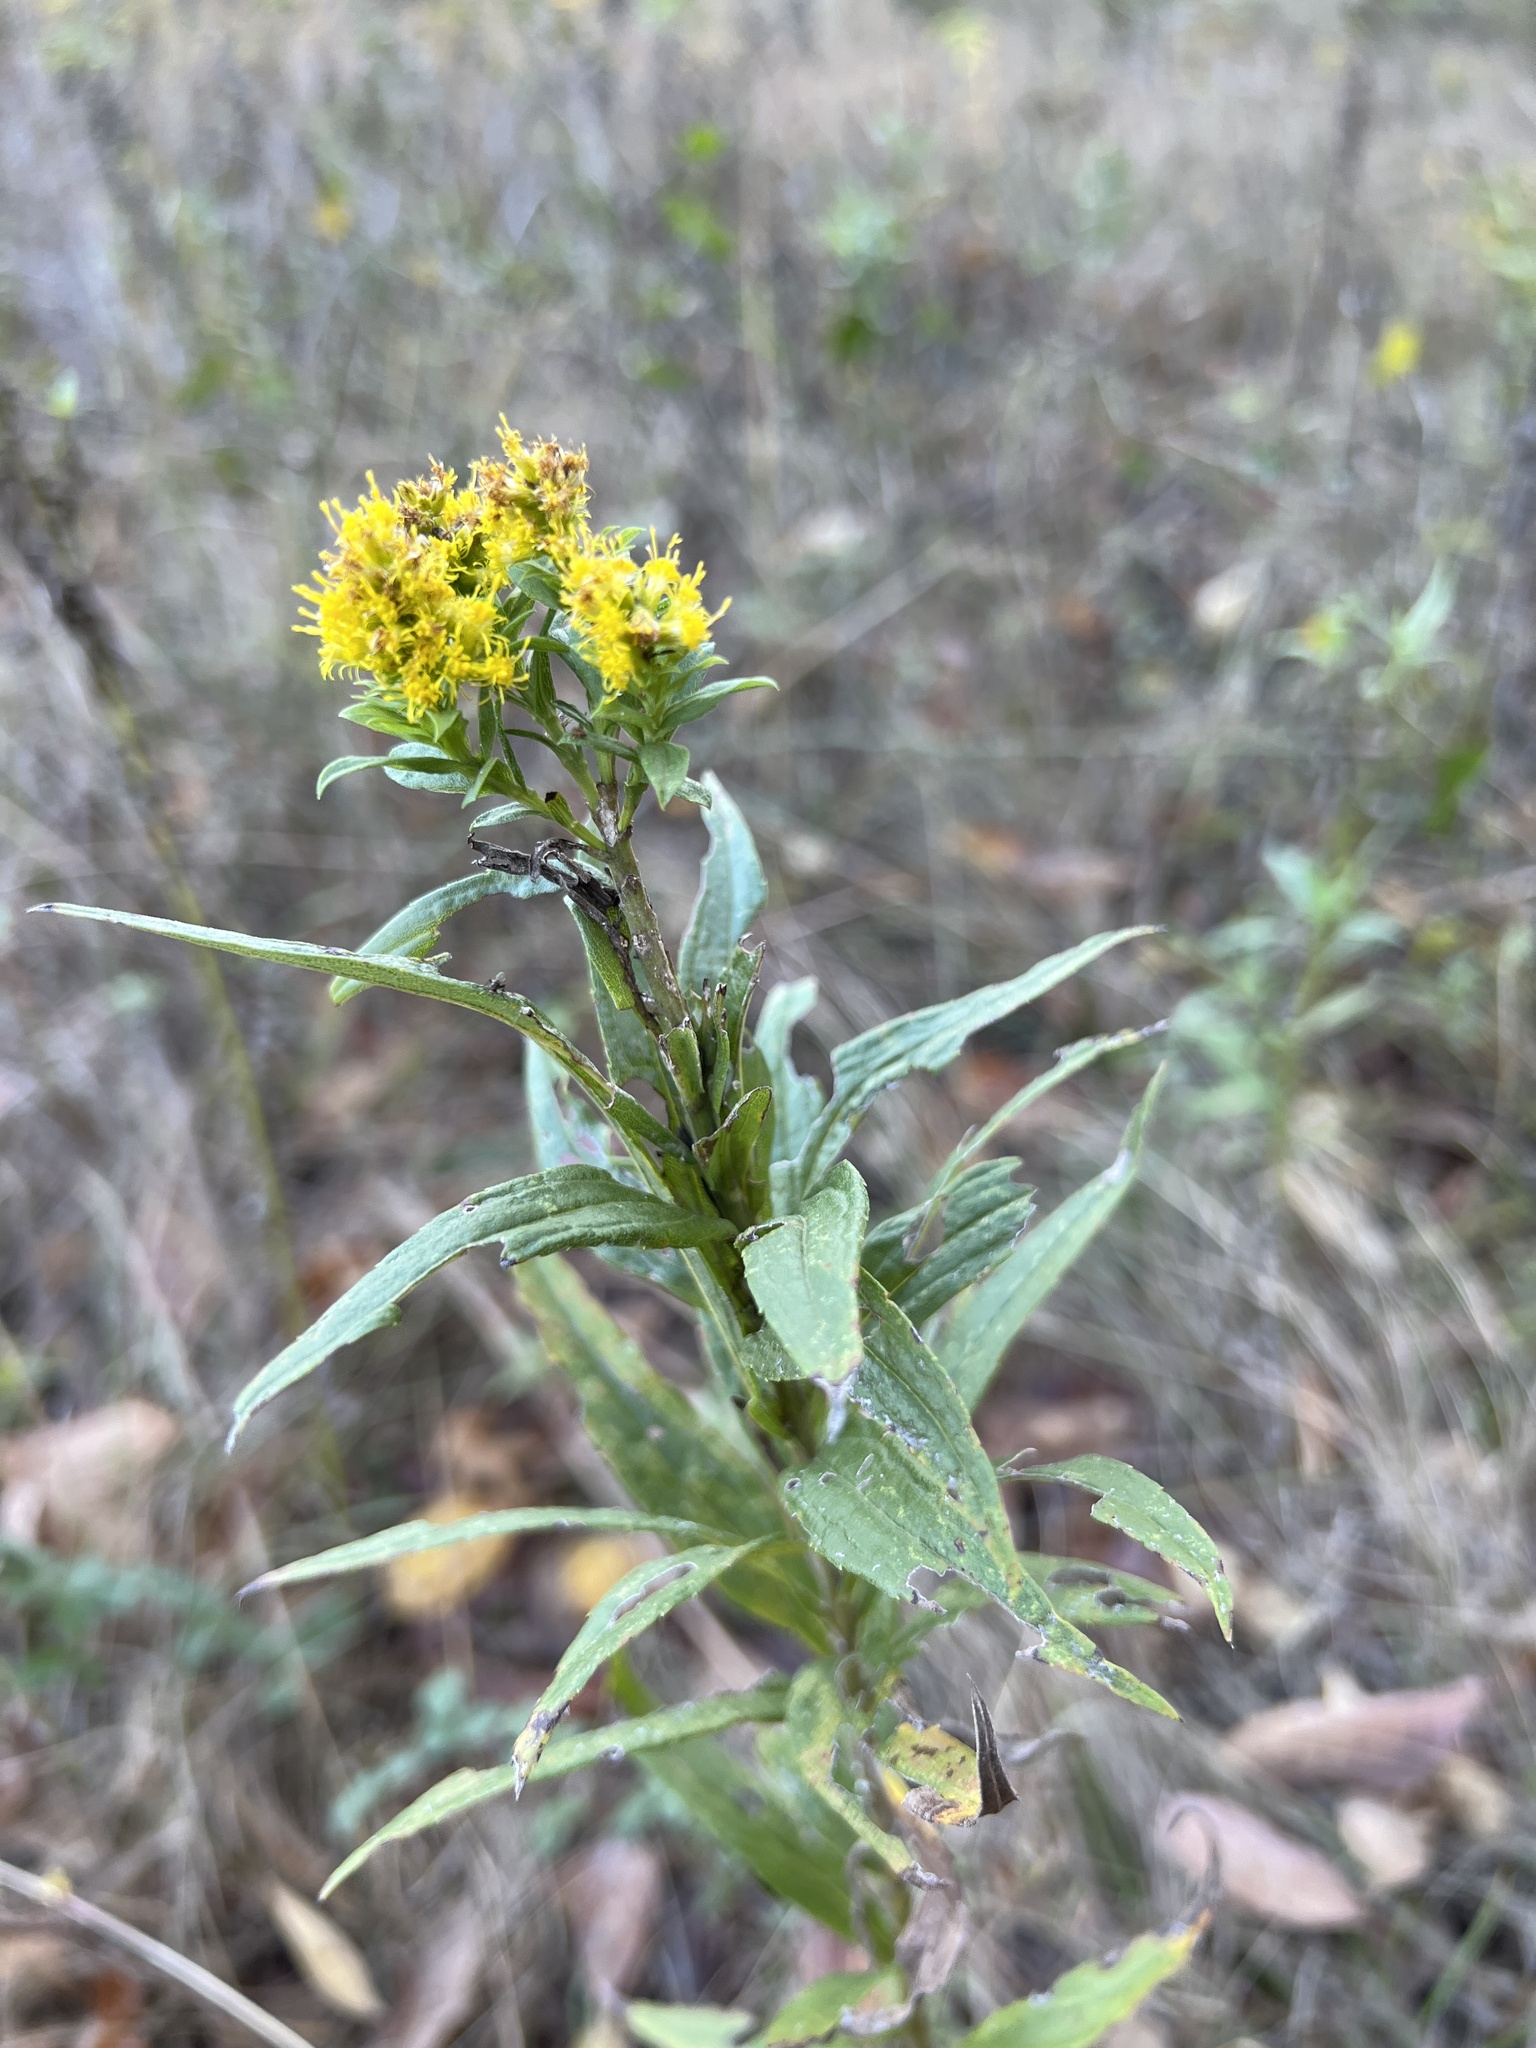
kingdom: Plantae
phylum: Tracheophyta
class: Magnoliopsida
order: Asterales
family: Asteraceae
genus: Solidago
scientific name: Solidago altissima
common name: Late goldenrod
